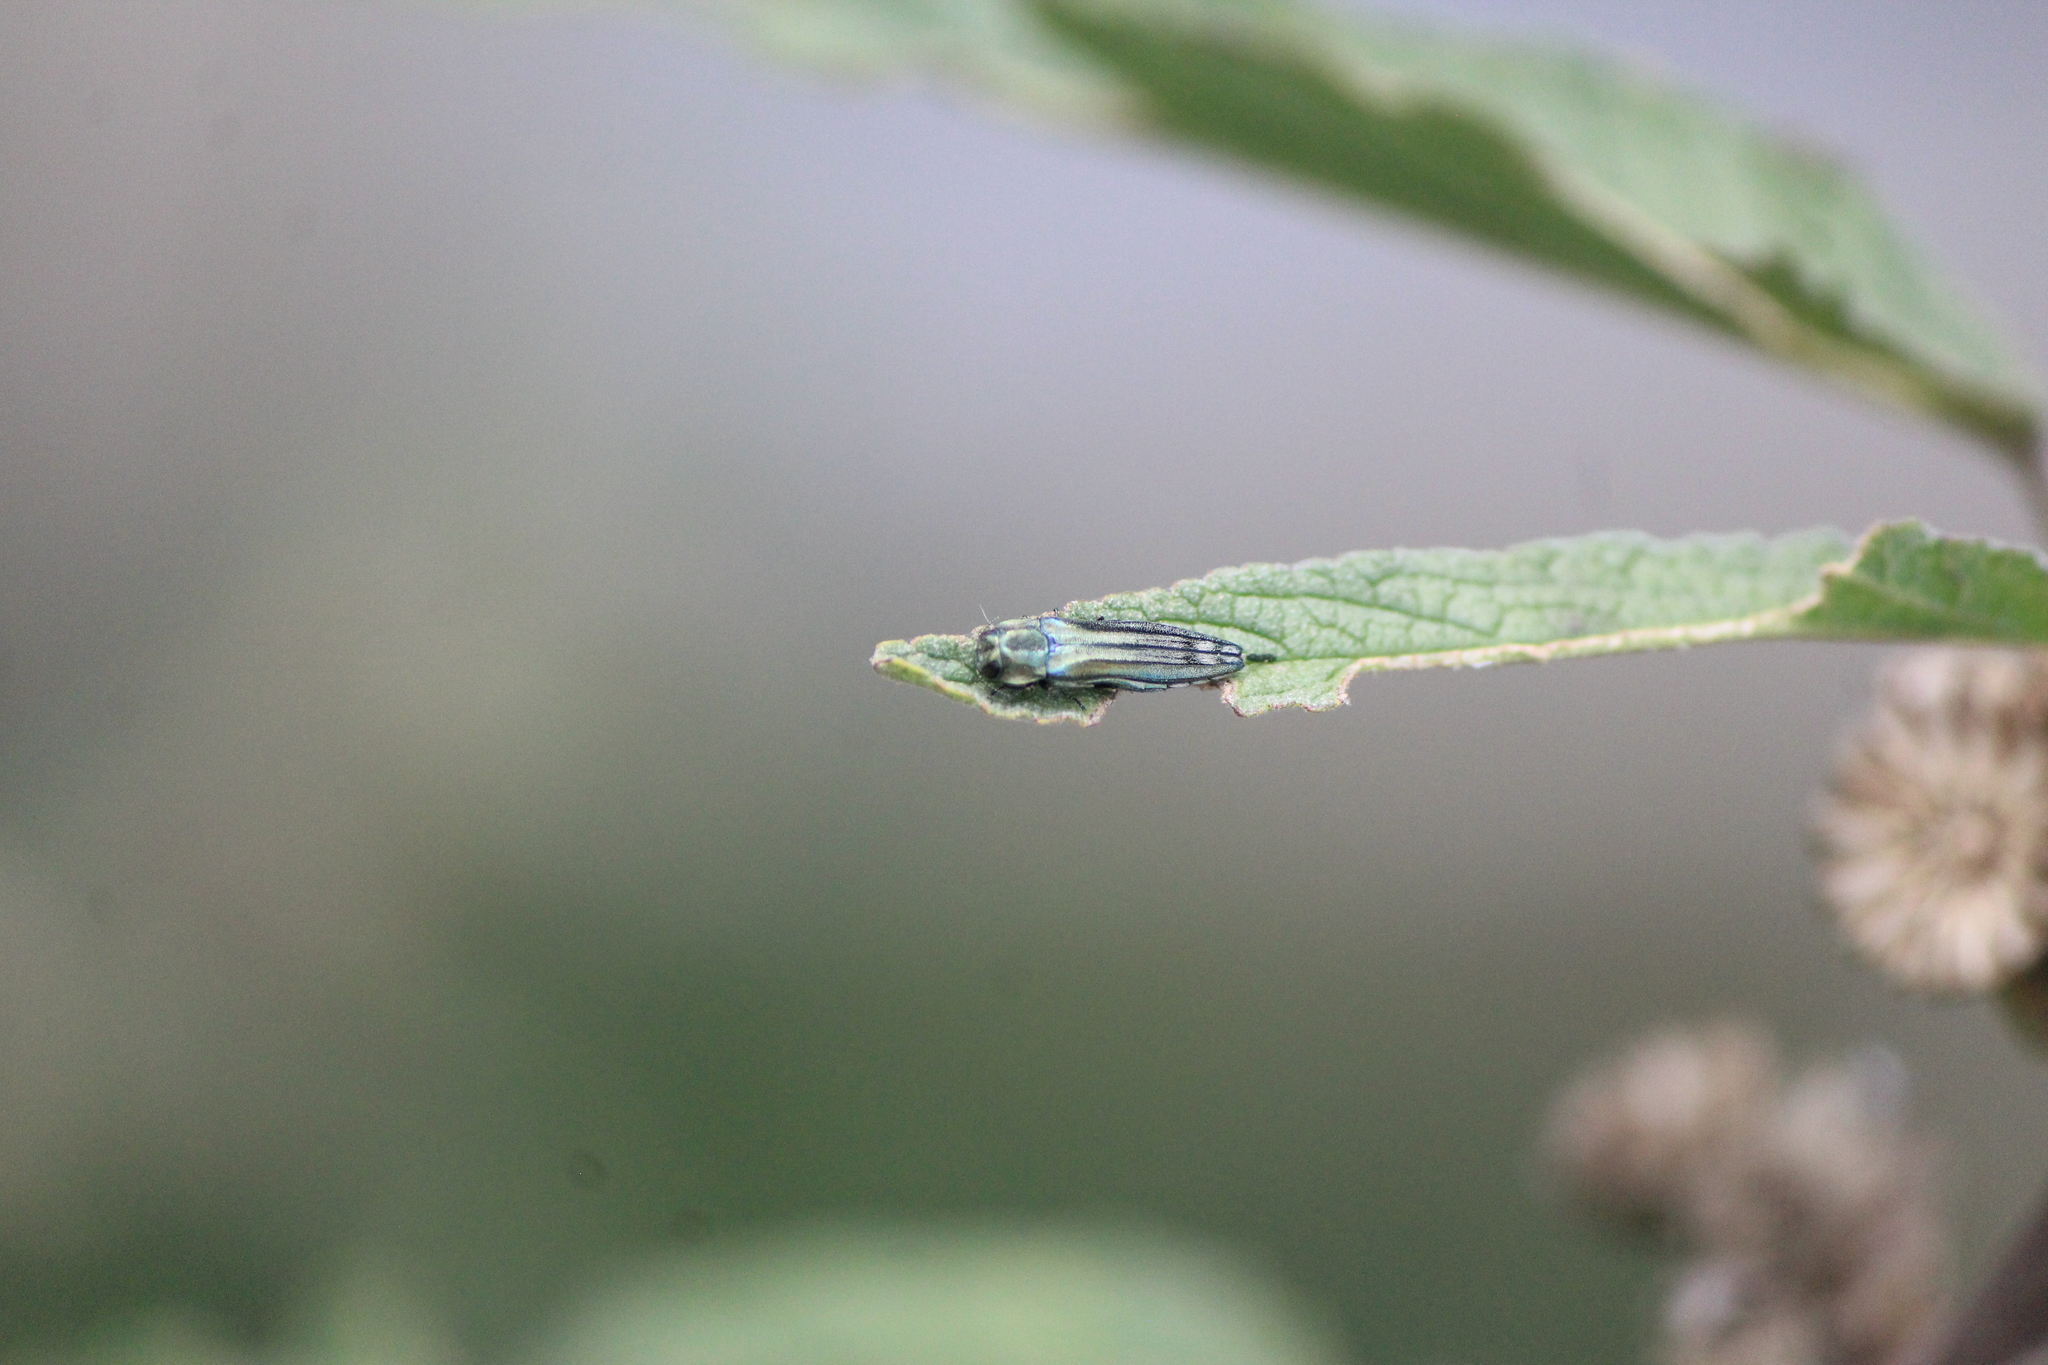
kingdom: Animalia
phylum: Arthropoda
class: Insecta
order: Coleoptera
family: Buprestidae
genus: Agrilus
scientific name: Agrilus aureus
